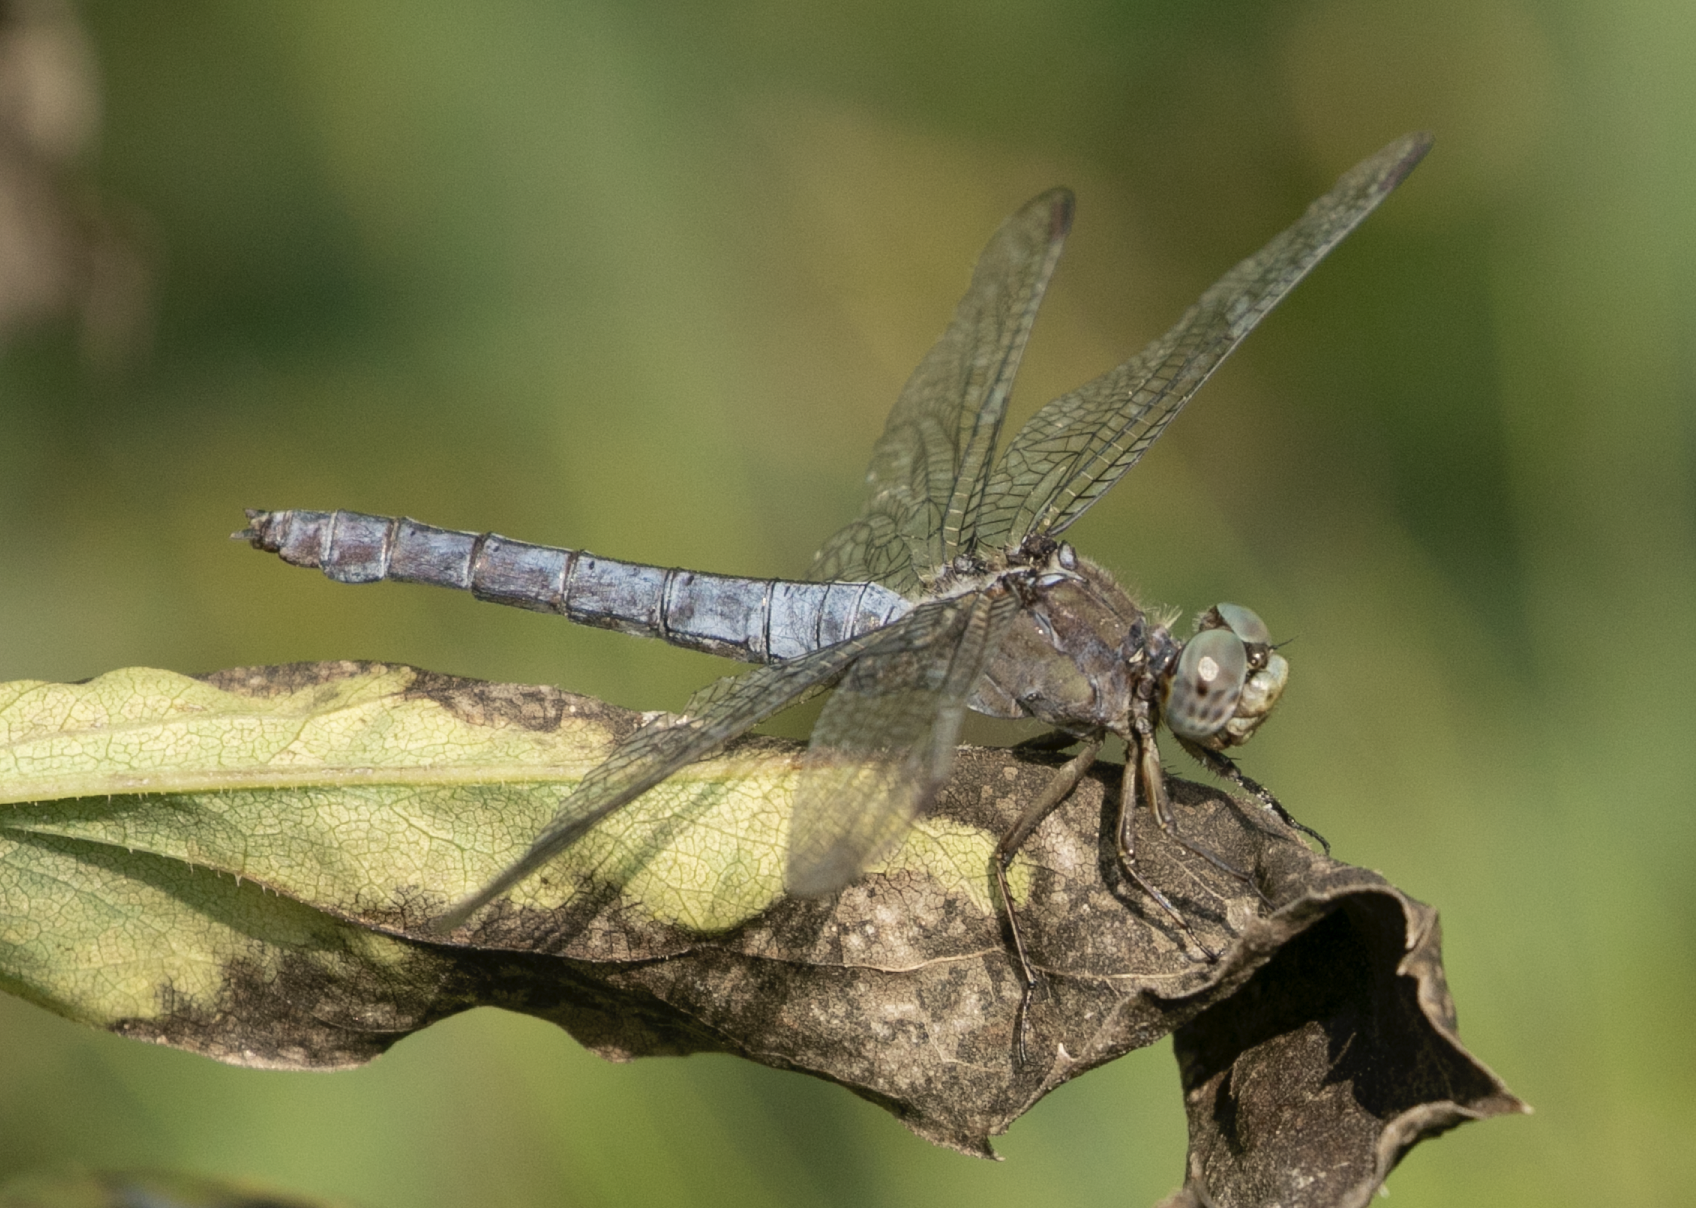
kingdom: Animalia
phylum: Arthropoda
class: Insecta
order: Odonata
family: Libellulidae
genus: Orthetrum
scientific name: Orthetrum coerulescens
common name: Keeled skimmer
